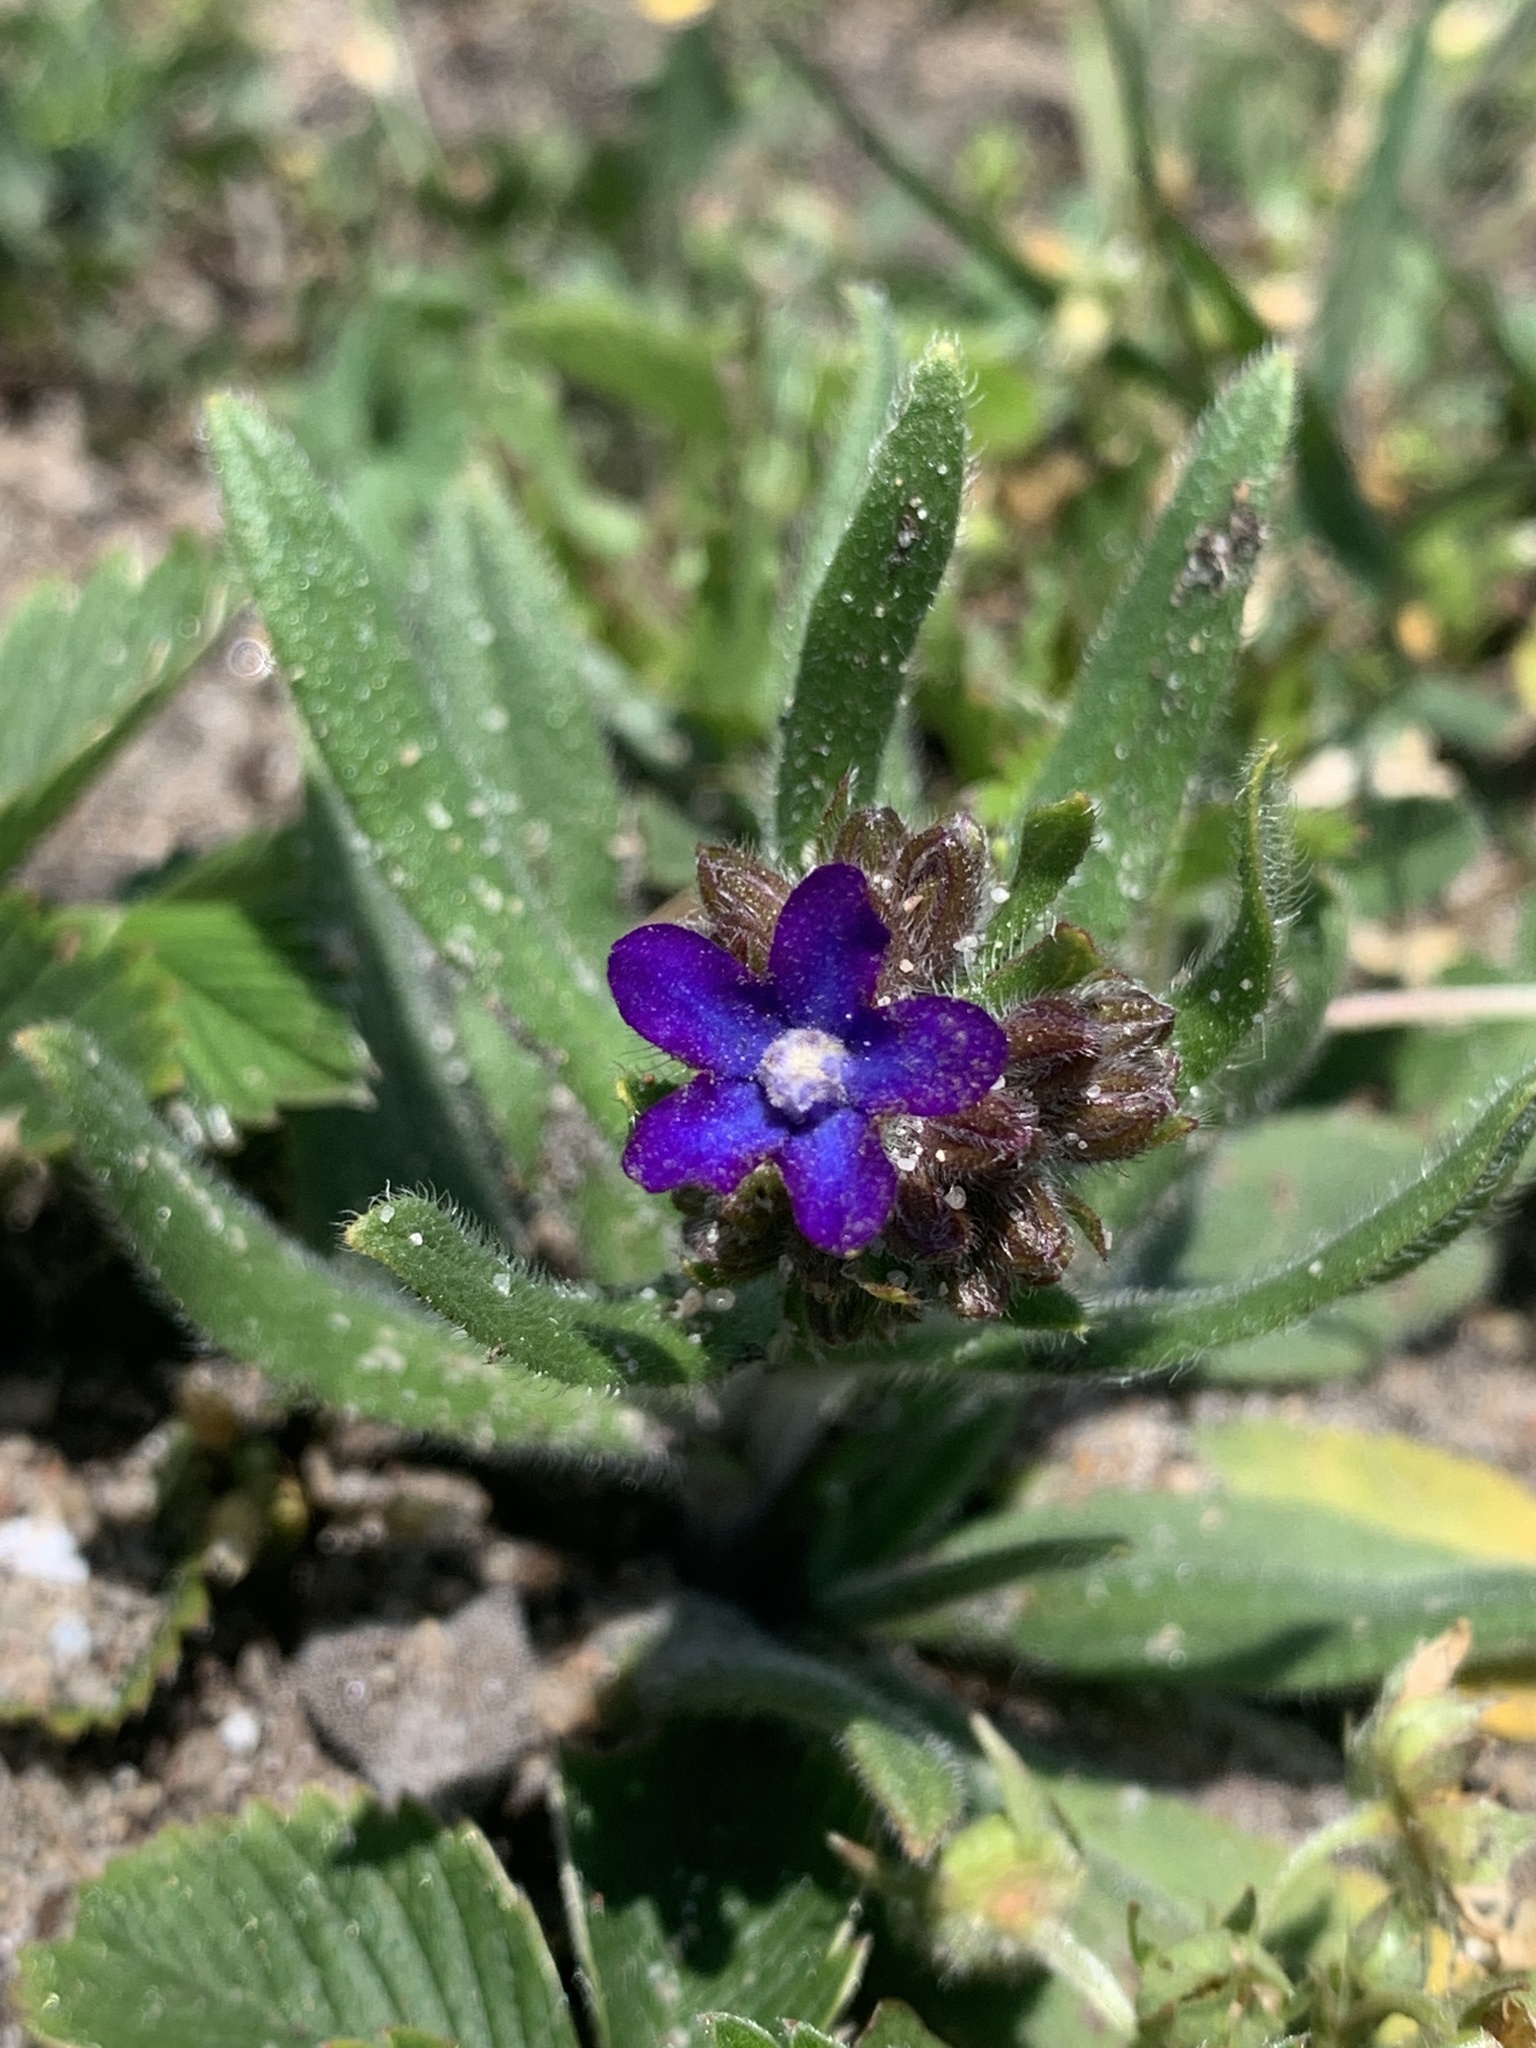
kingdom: Plantae
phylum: Tracheophyta
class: Magnoliopsida
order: Boraginales
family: Boraginaceae
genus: Anchusa
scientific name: Anchusa officinalis
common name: Alkanet
